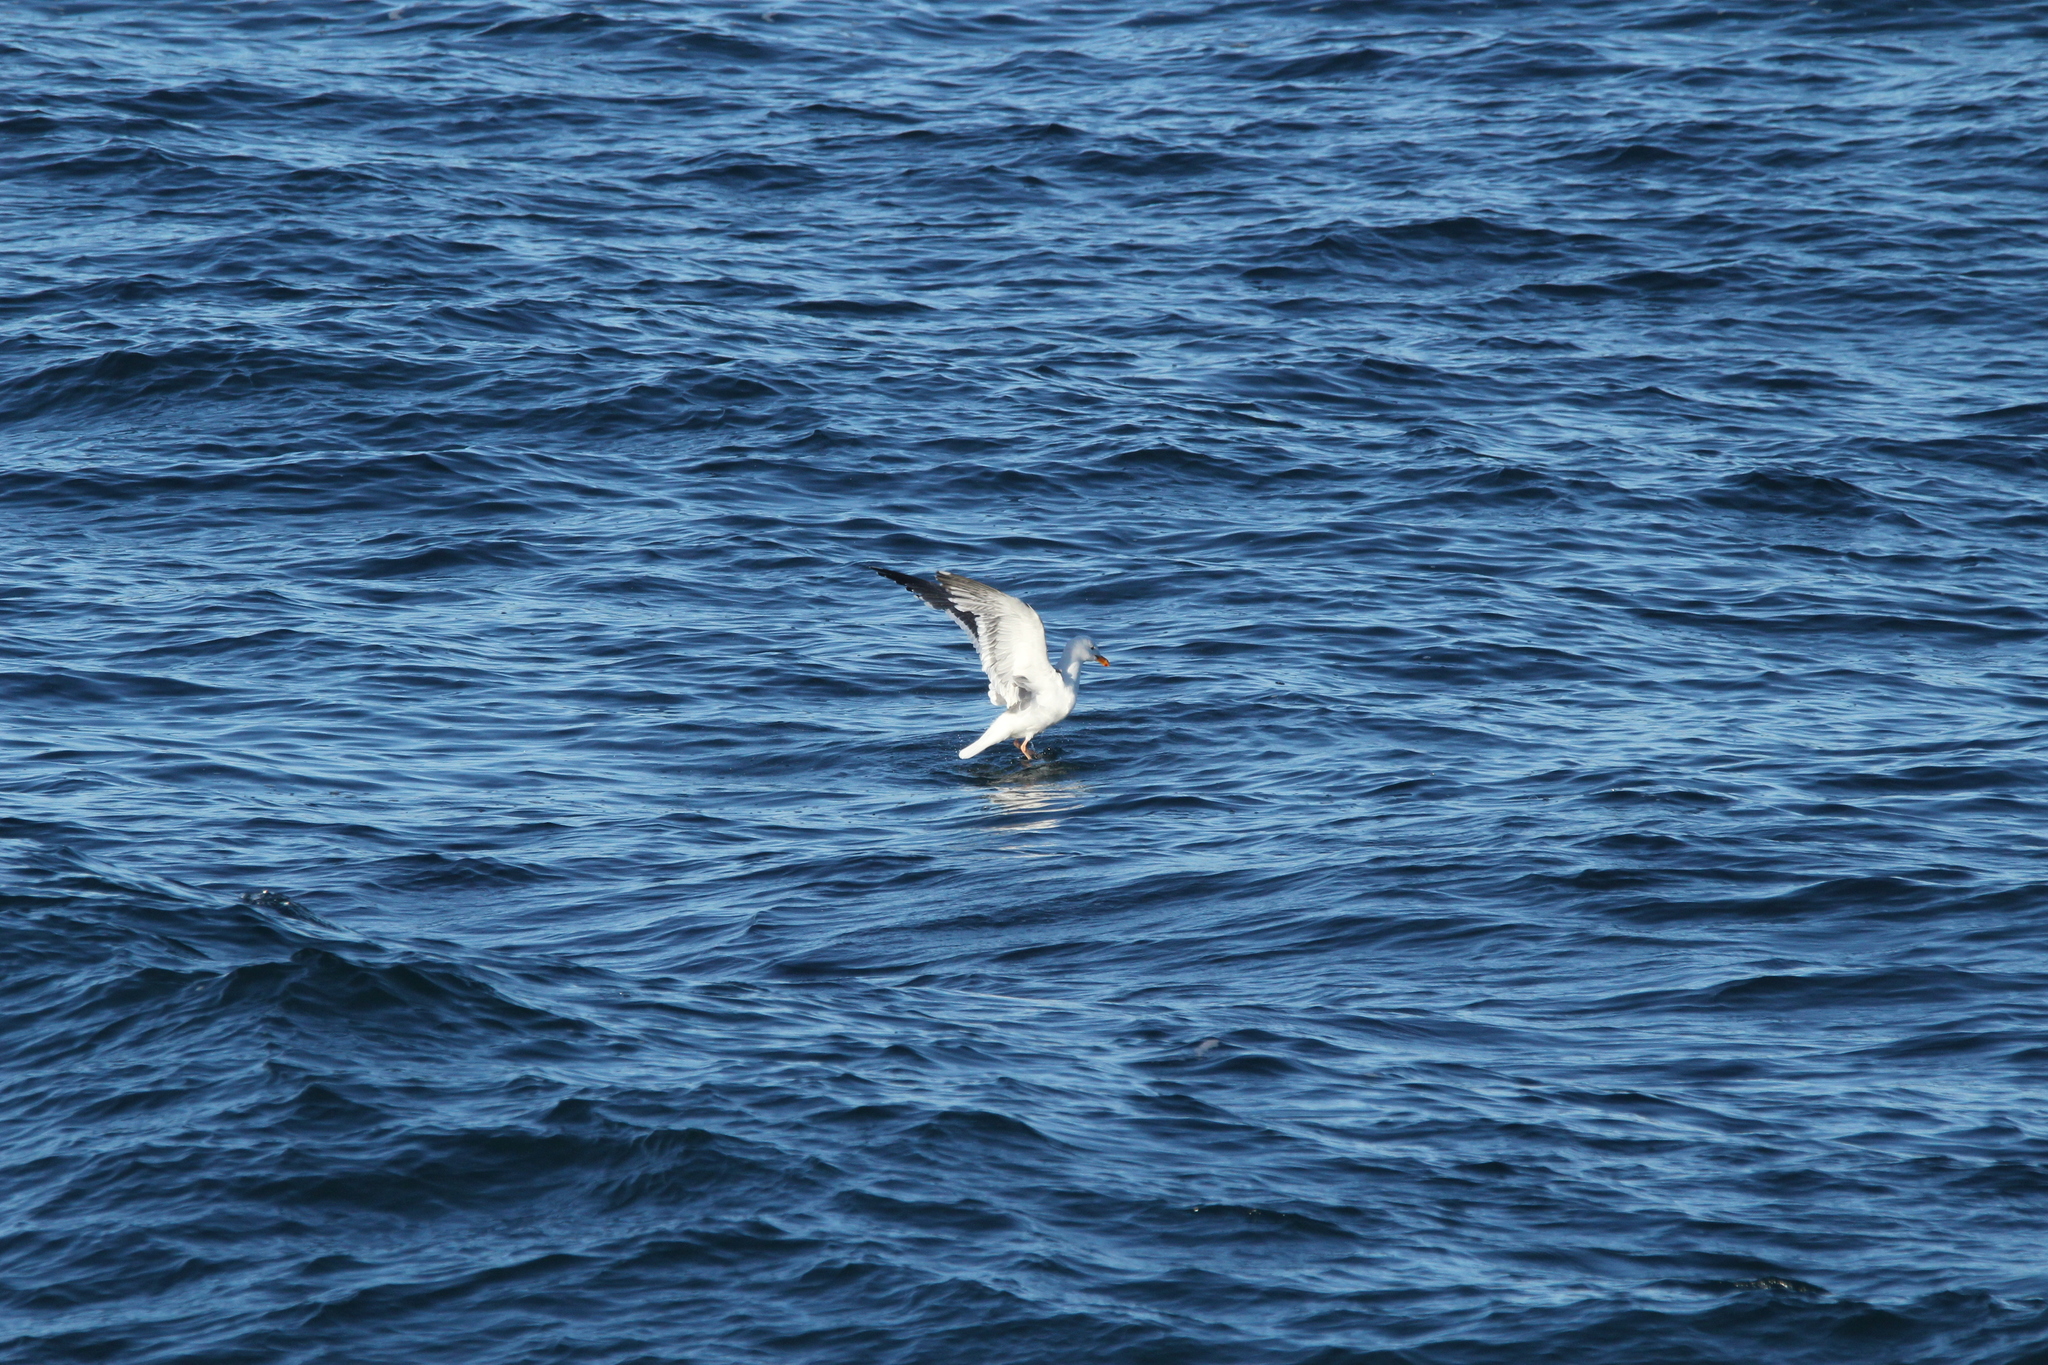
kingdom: Animalia
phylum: Chordata
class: Aves
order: Charadriiformes
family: Laridae
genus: Larus
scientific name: Larus occidentalis
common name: Western gull
